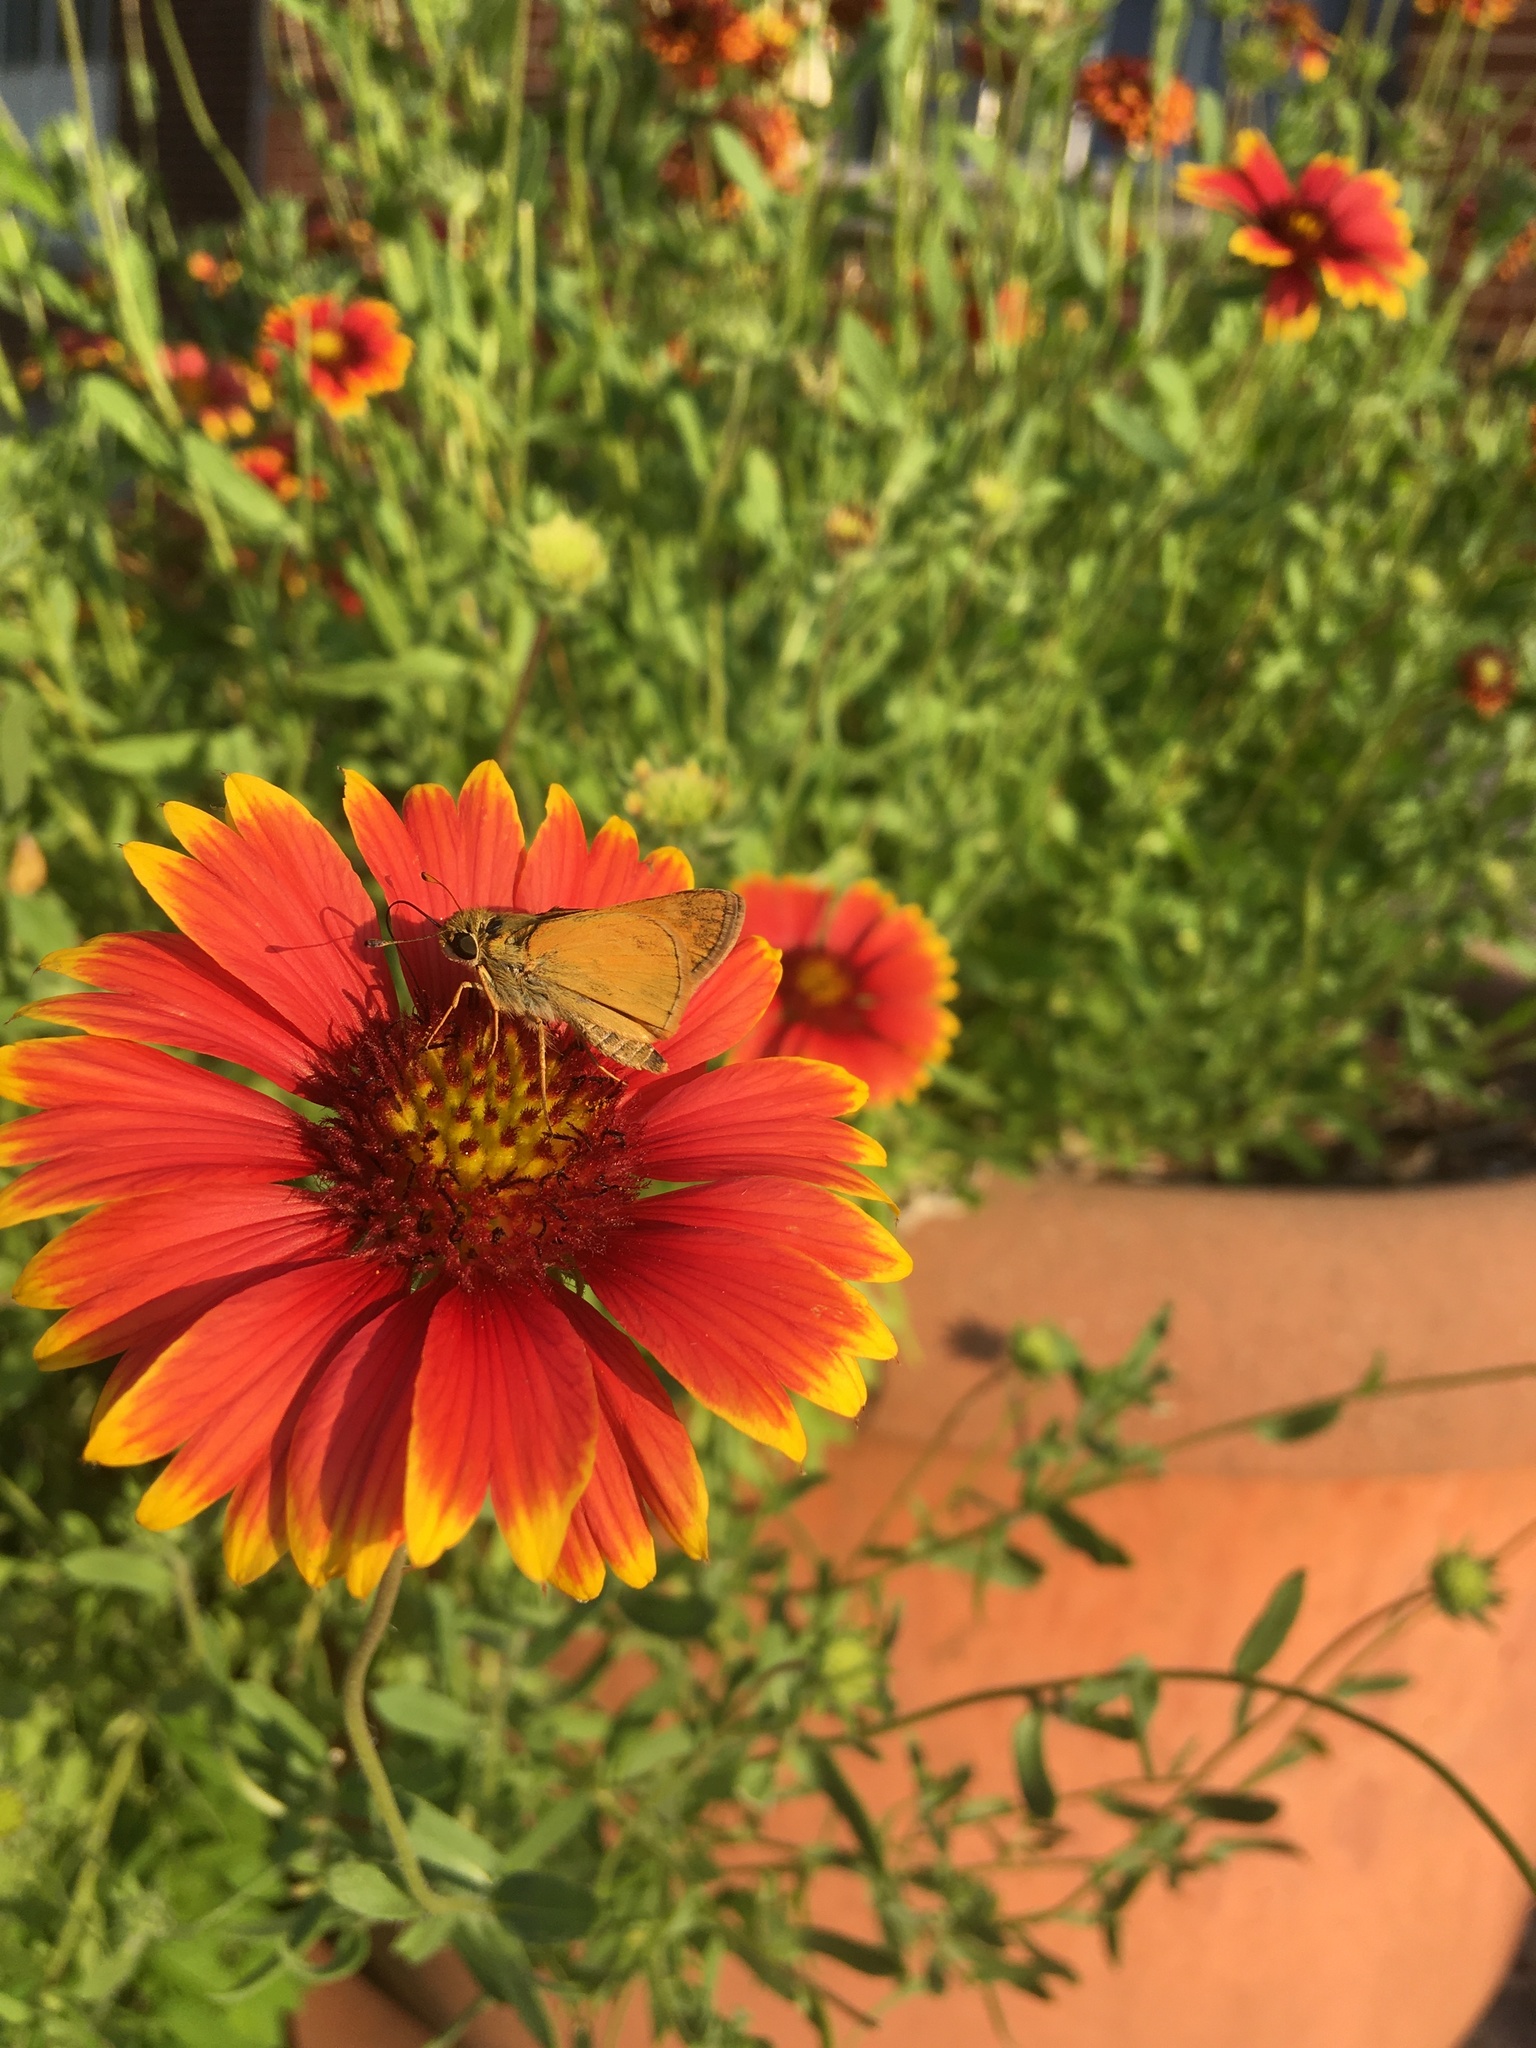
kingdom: Animalia
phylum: Arthropoda
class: Insecta
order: Lepidoptera
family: Hesperiidae
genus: Atalopedes
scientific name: Atalopedes
